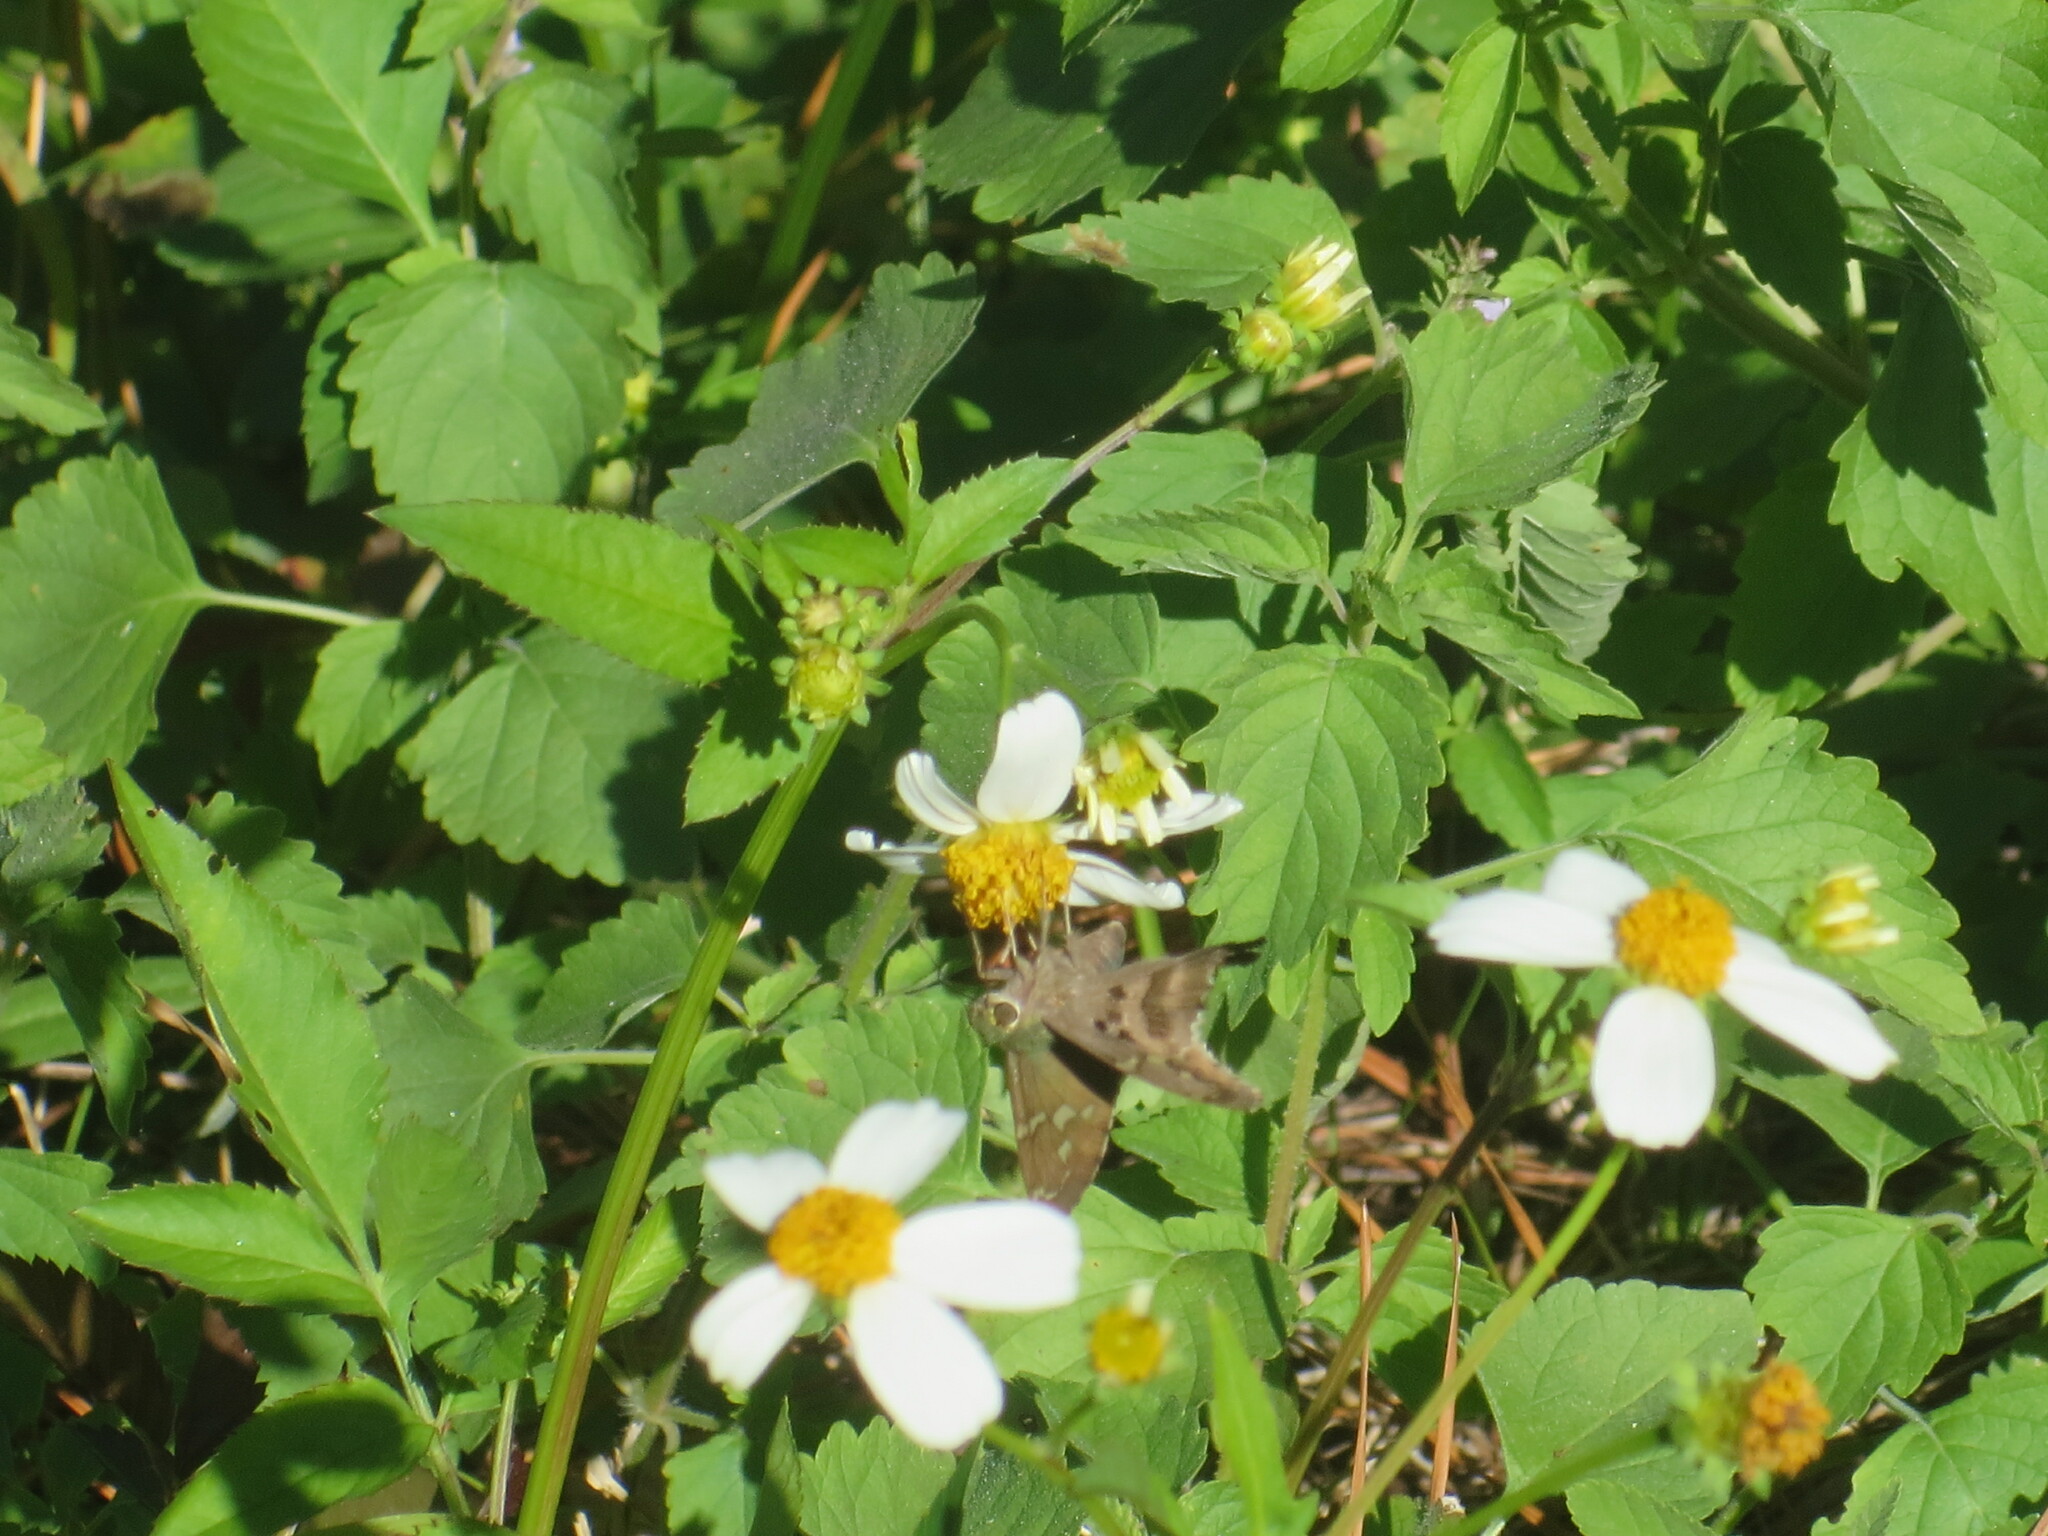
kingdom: Animalia
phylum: Arthropoda
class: Insecta
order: Lepidoptera
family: Hesperiidae
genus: Urbanus
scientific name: Urbanus proteus
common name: Long-tailed skipper
